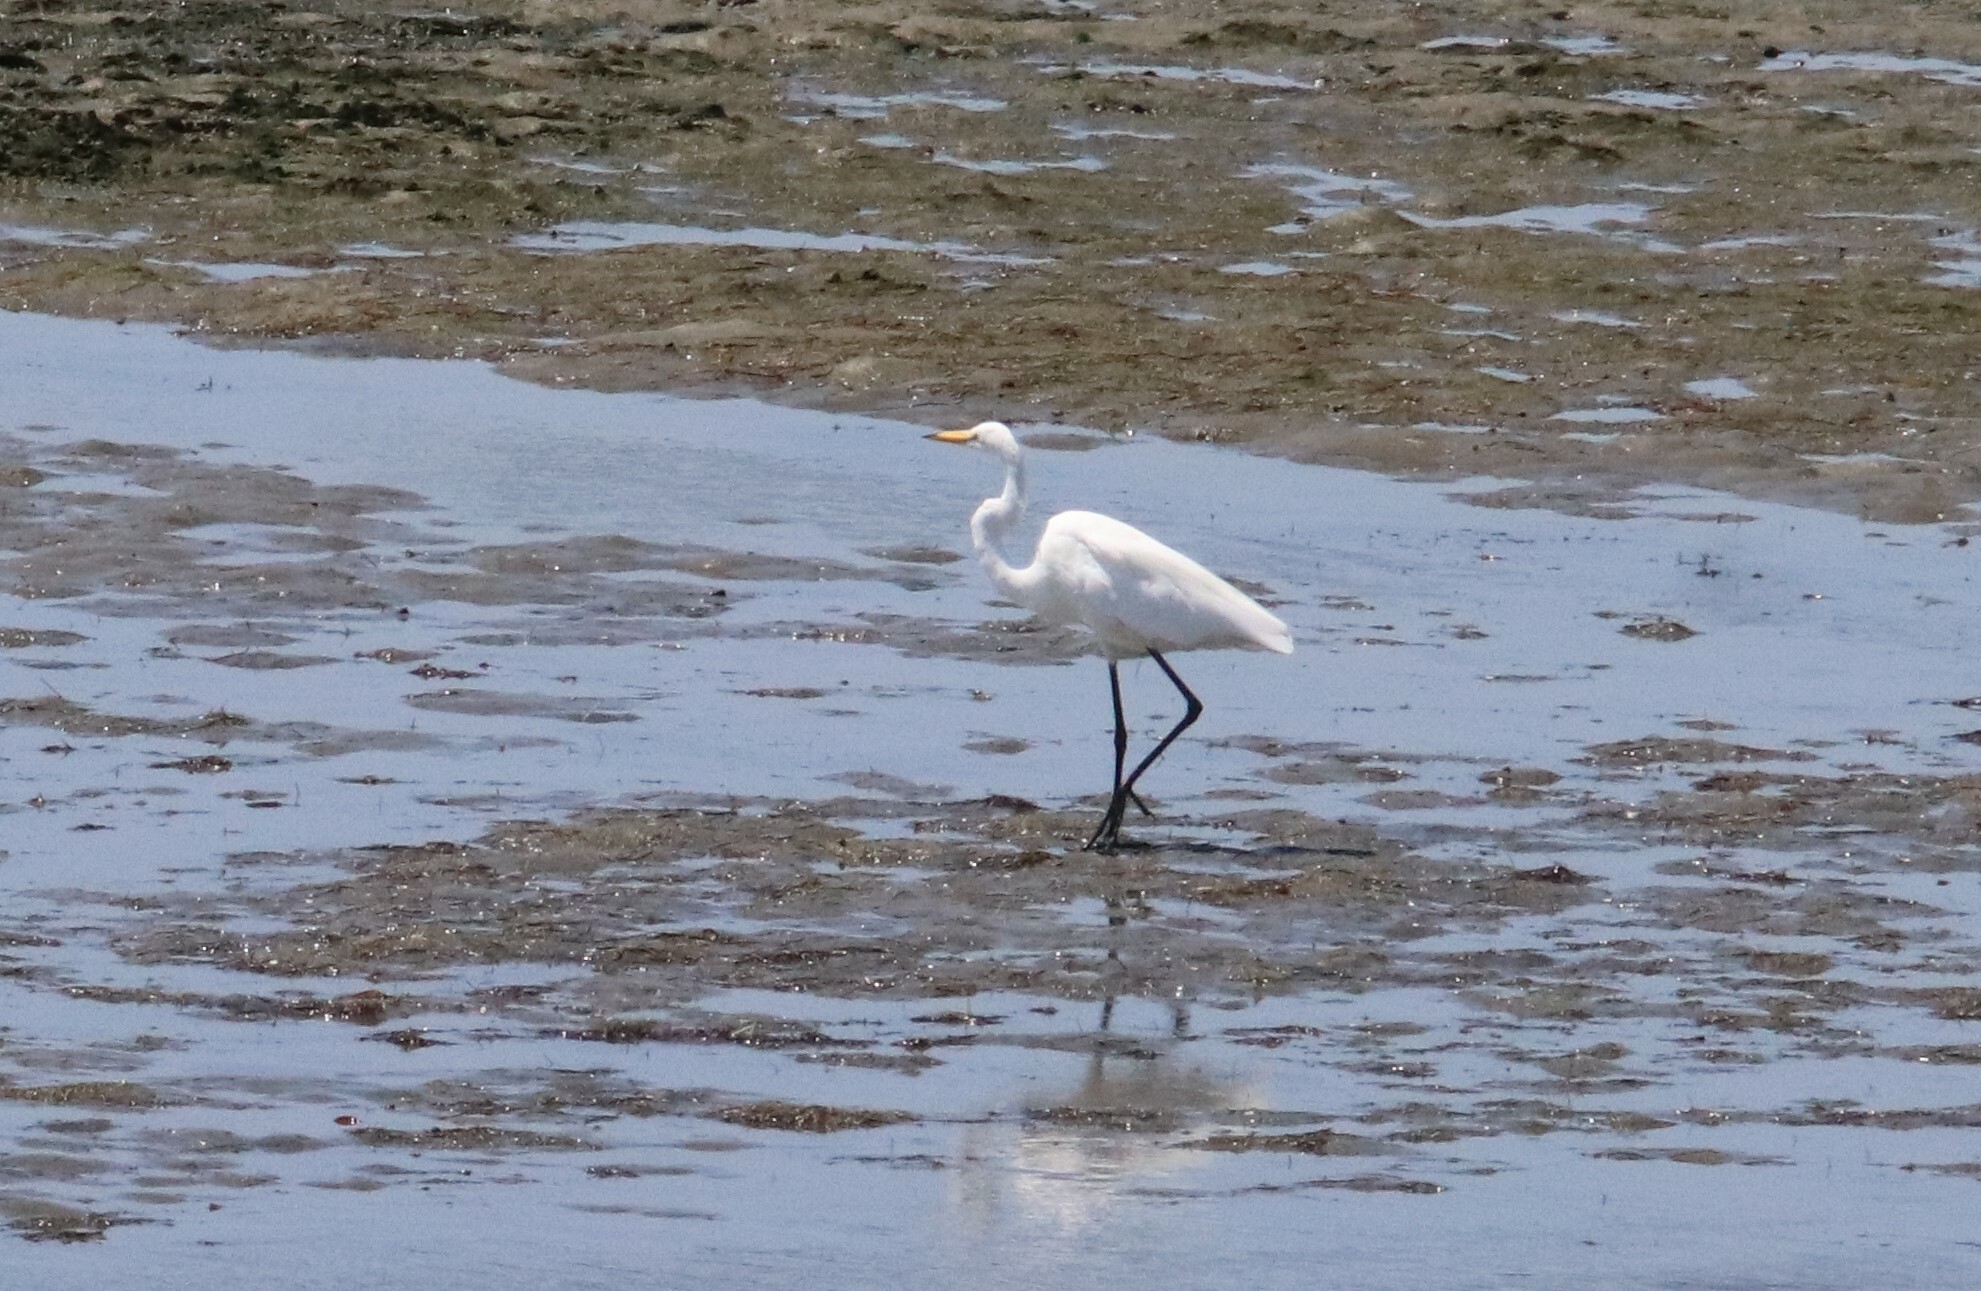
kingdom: Animalia
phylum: Chordata
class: Aves
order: Pelecaniformes
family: Ardeidae
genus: Ardea
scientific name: Ardea alba
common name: Great egret
